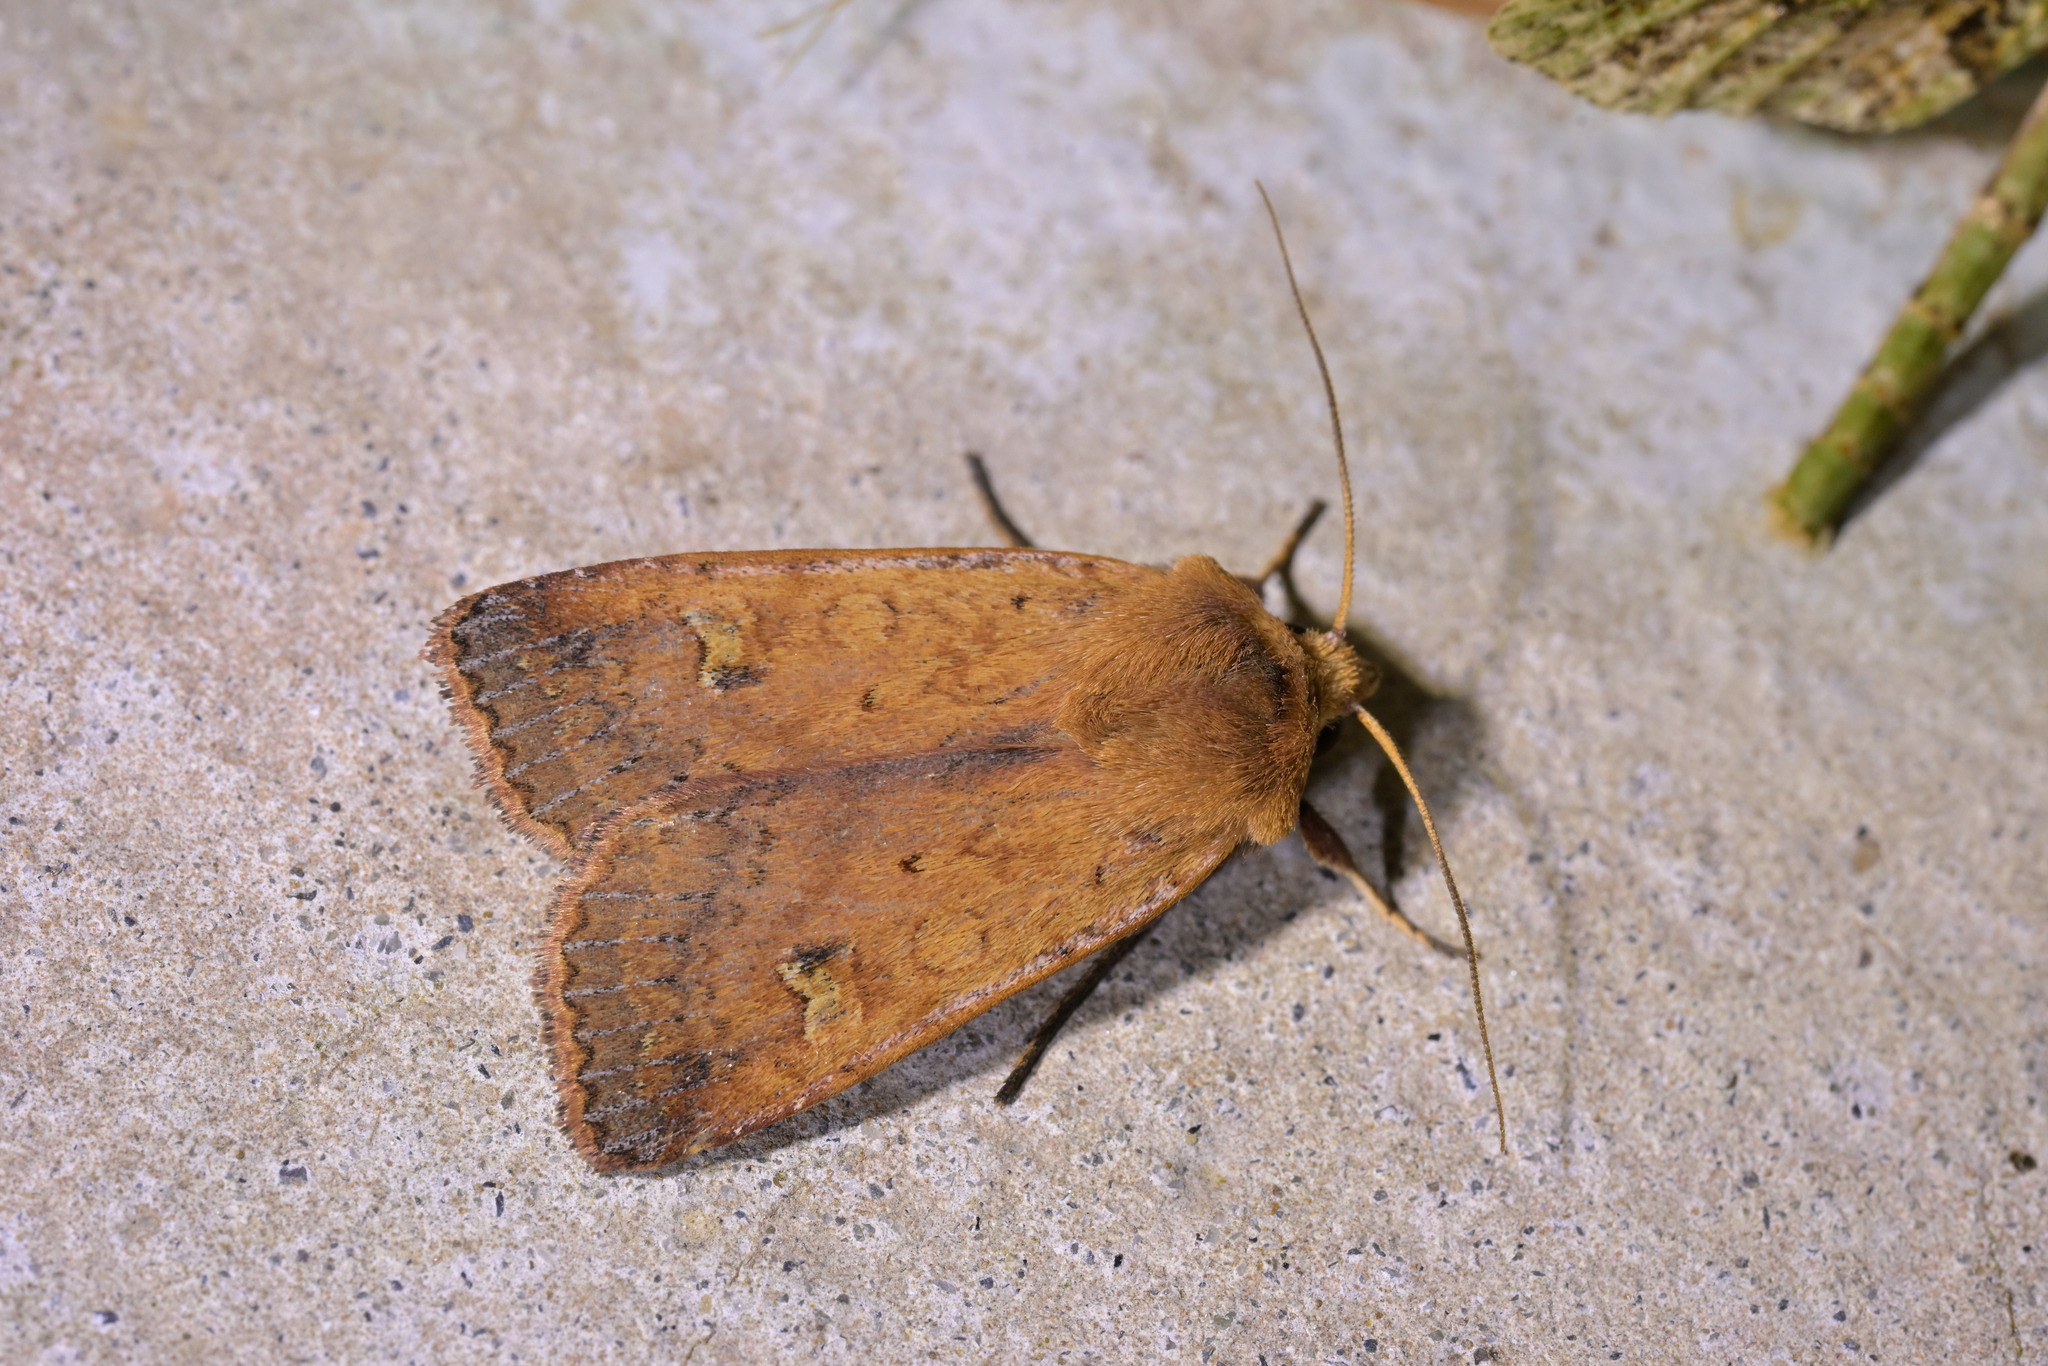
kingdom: Animalia
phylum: Arthropoda
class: Insecta
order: Lepidoptera
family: Noctuidae
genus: Diarsia
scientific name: Diarsia intermixta
